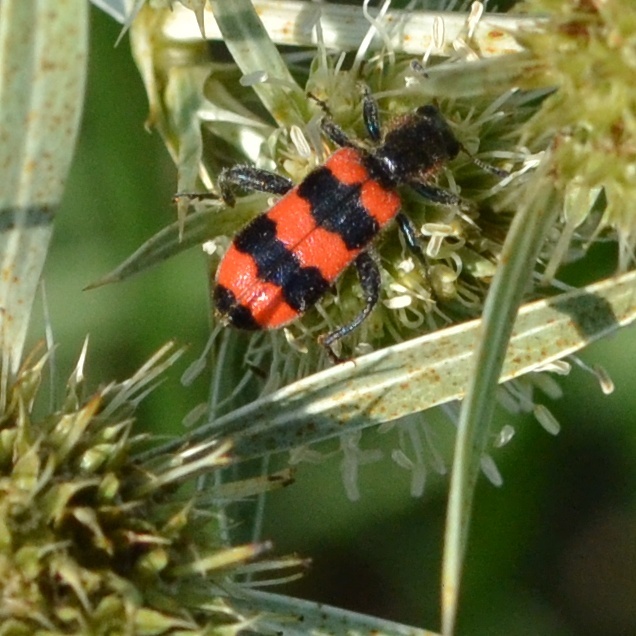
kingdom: Animalia
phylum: Arthropoda
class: Insecta
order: Coleoptera
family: Cleridae
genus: Trichodes
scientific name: Trichodes apiarius
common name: Bee-eating beetle
